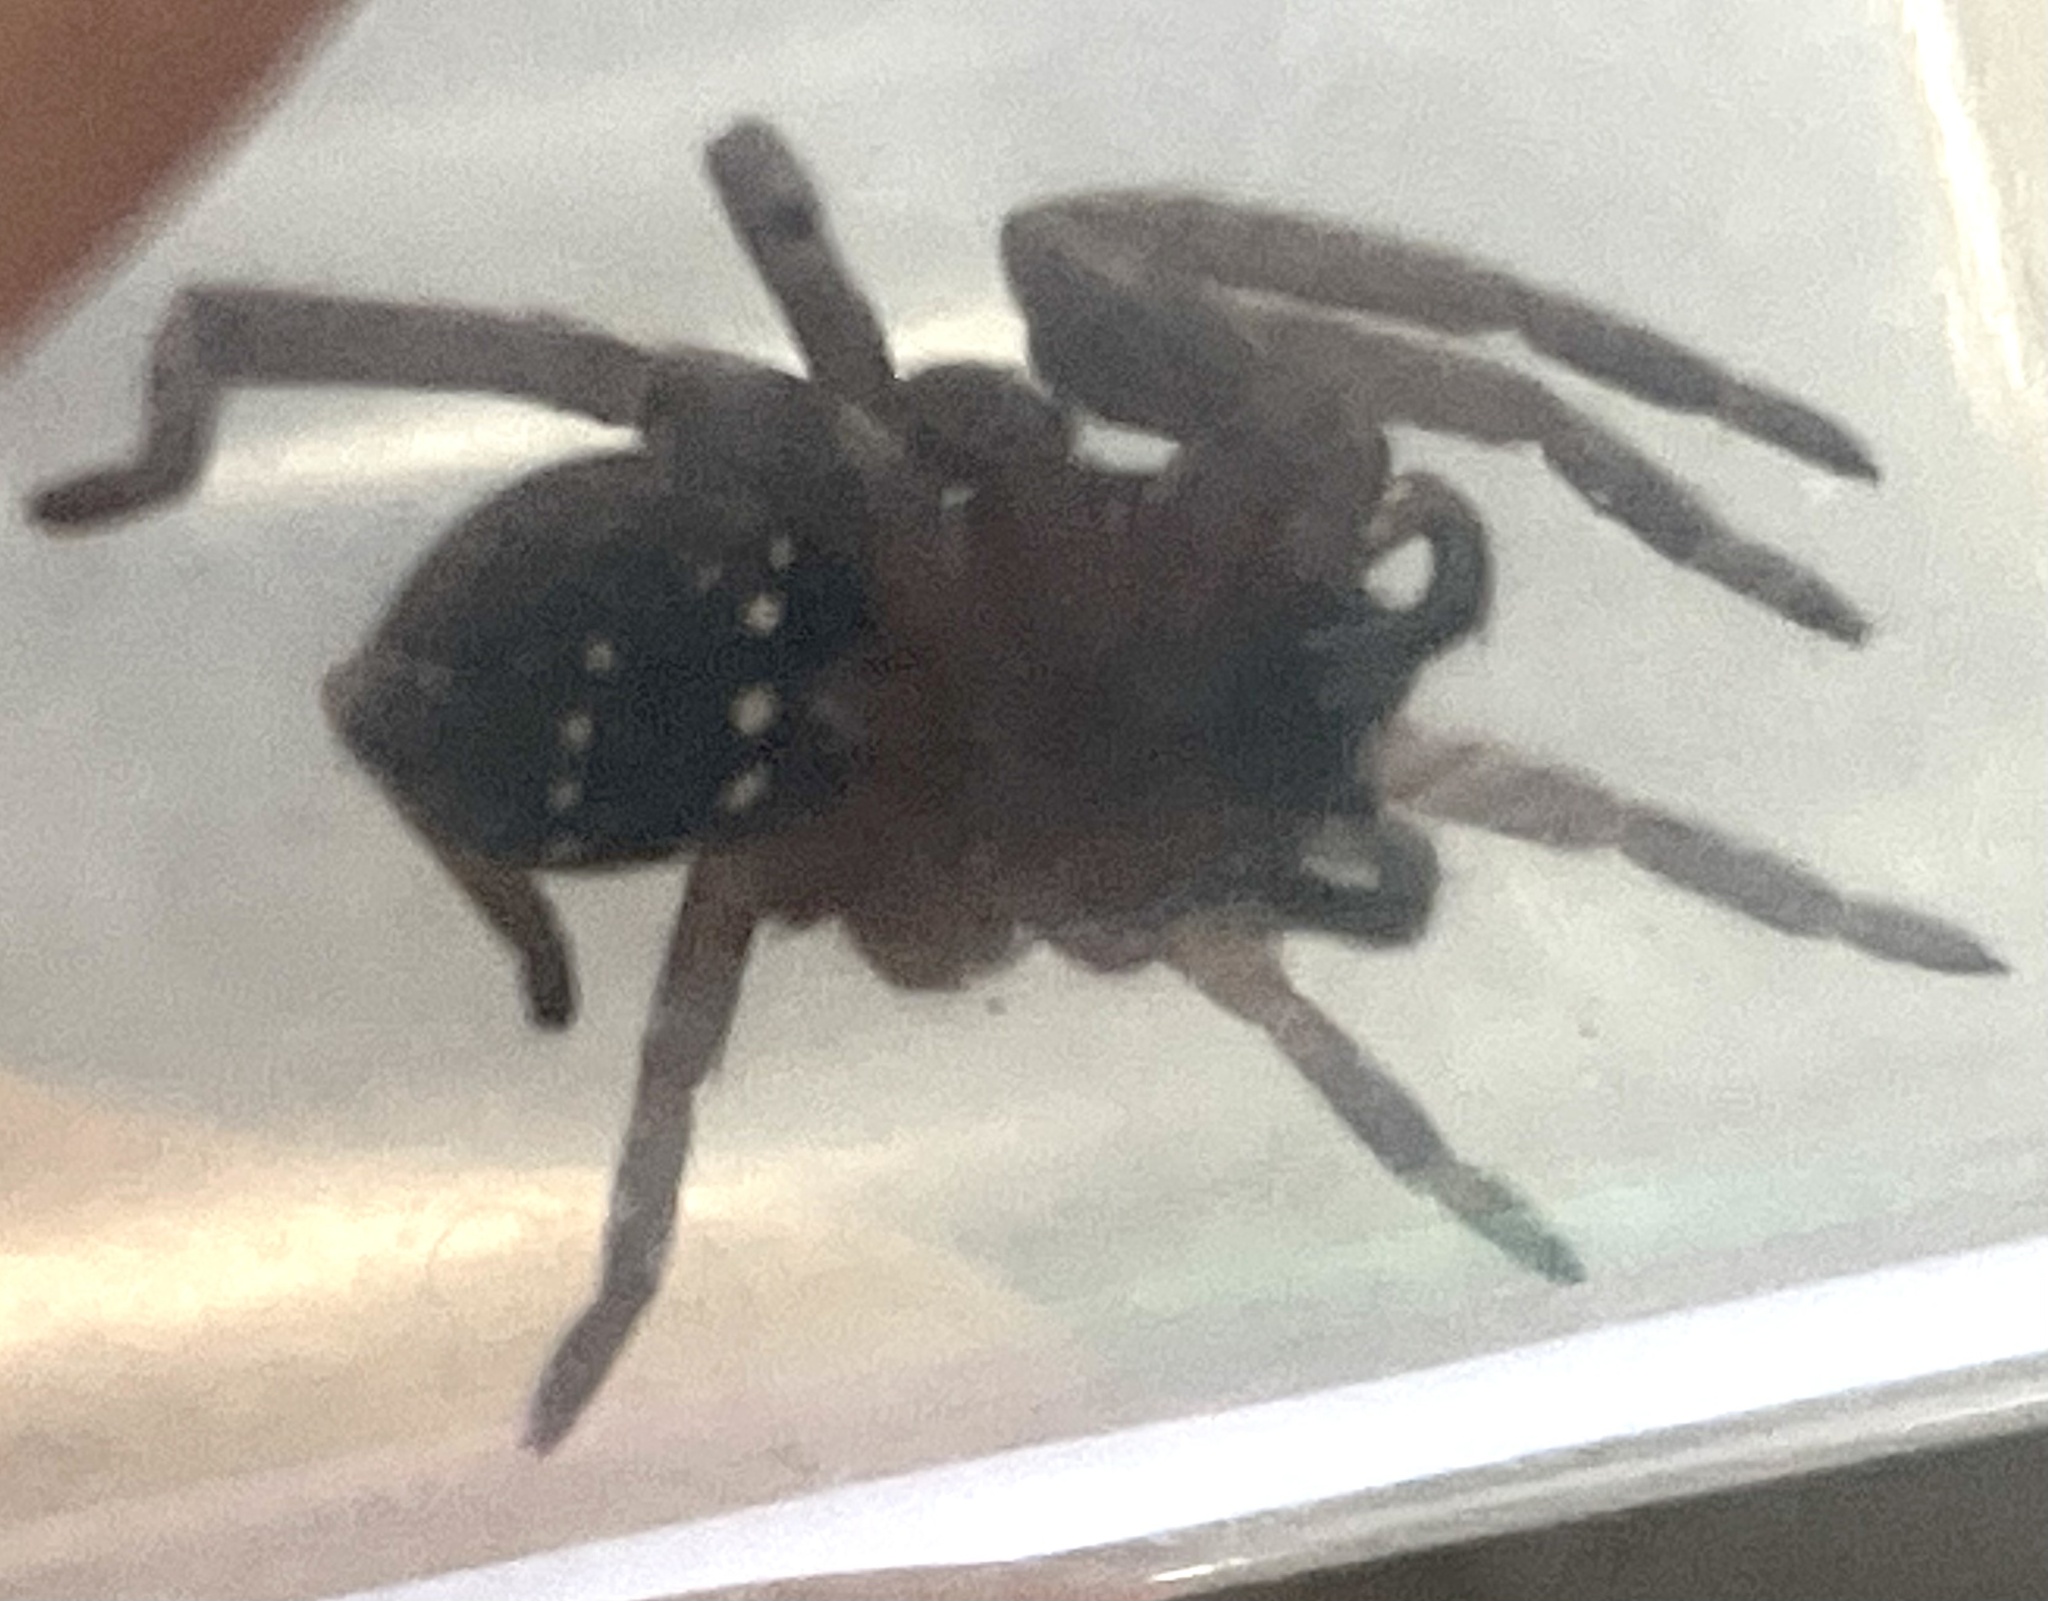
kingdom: Animalia
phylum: Arthropoda
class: Arachnida
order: Araneae
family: Miturgidae
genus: Mituliodon
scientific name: Mituliodon tarantulinus
